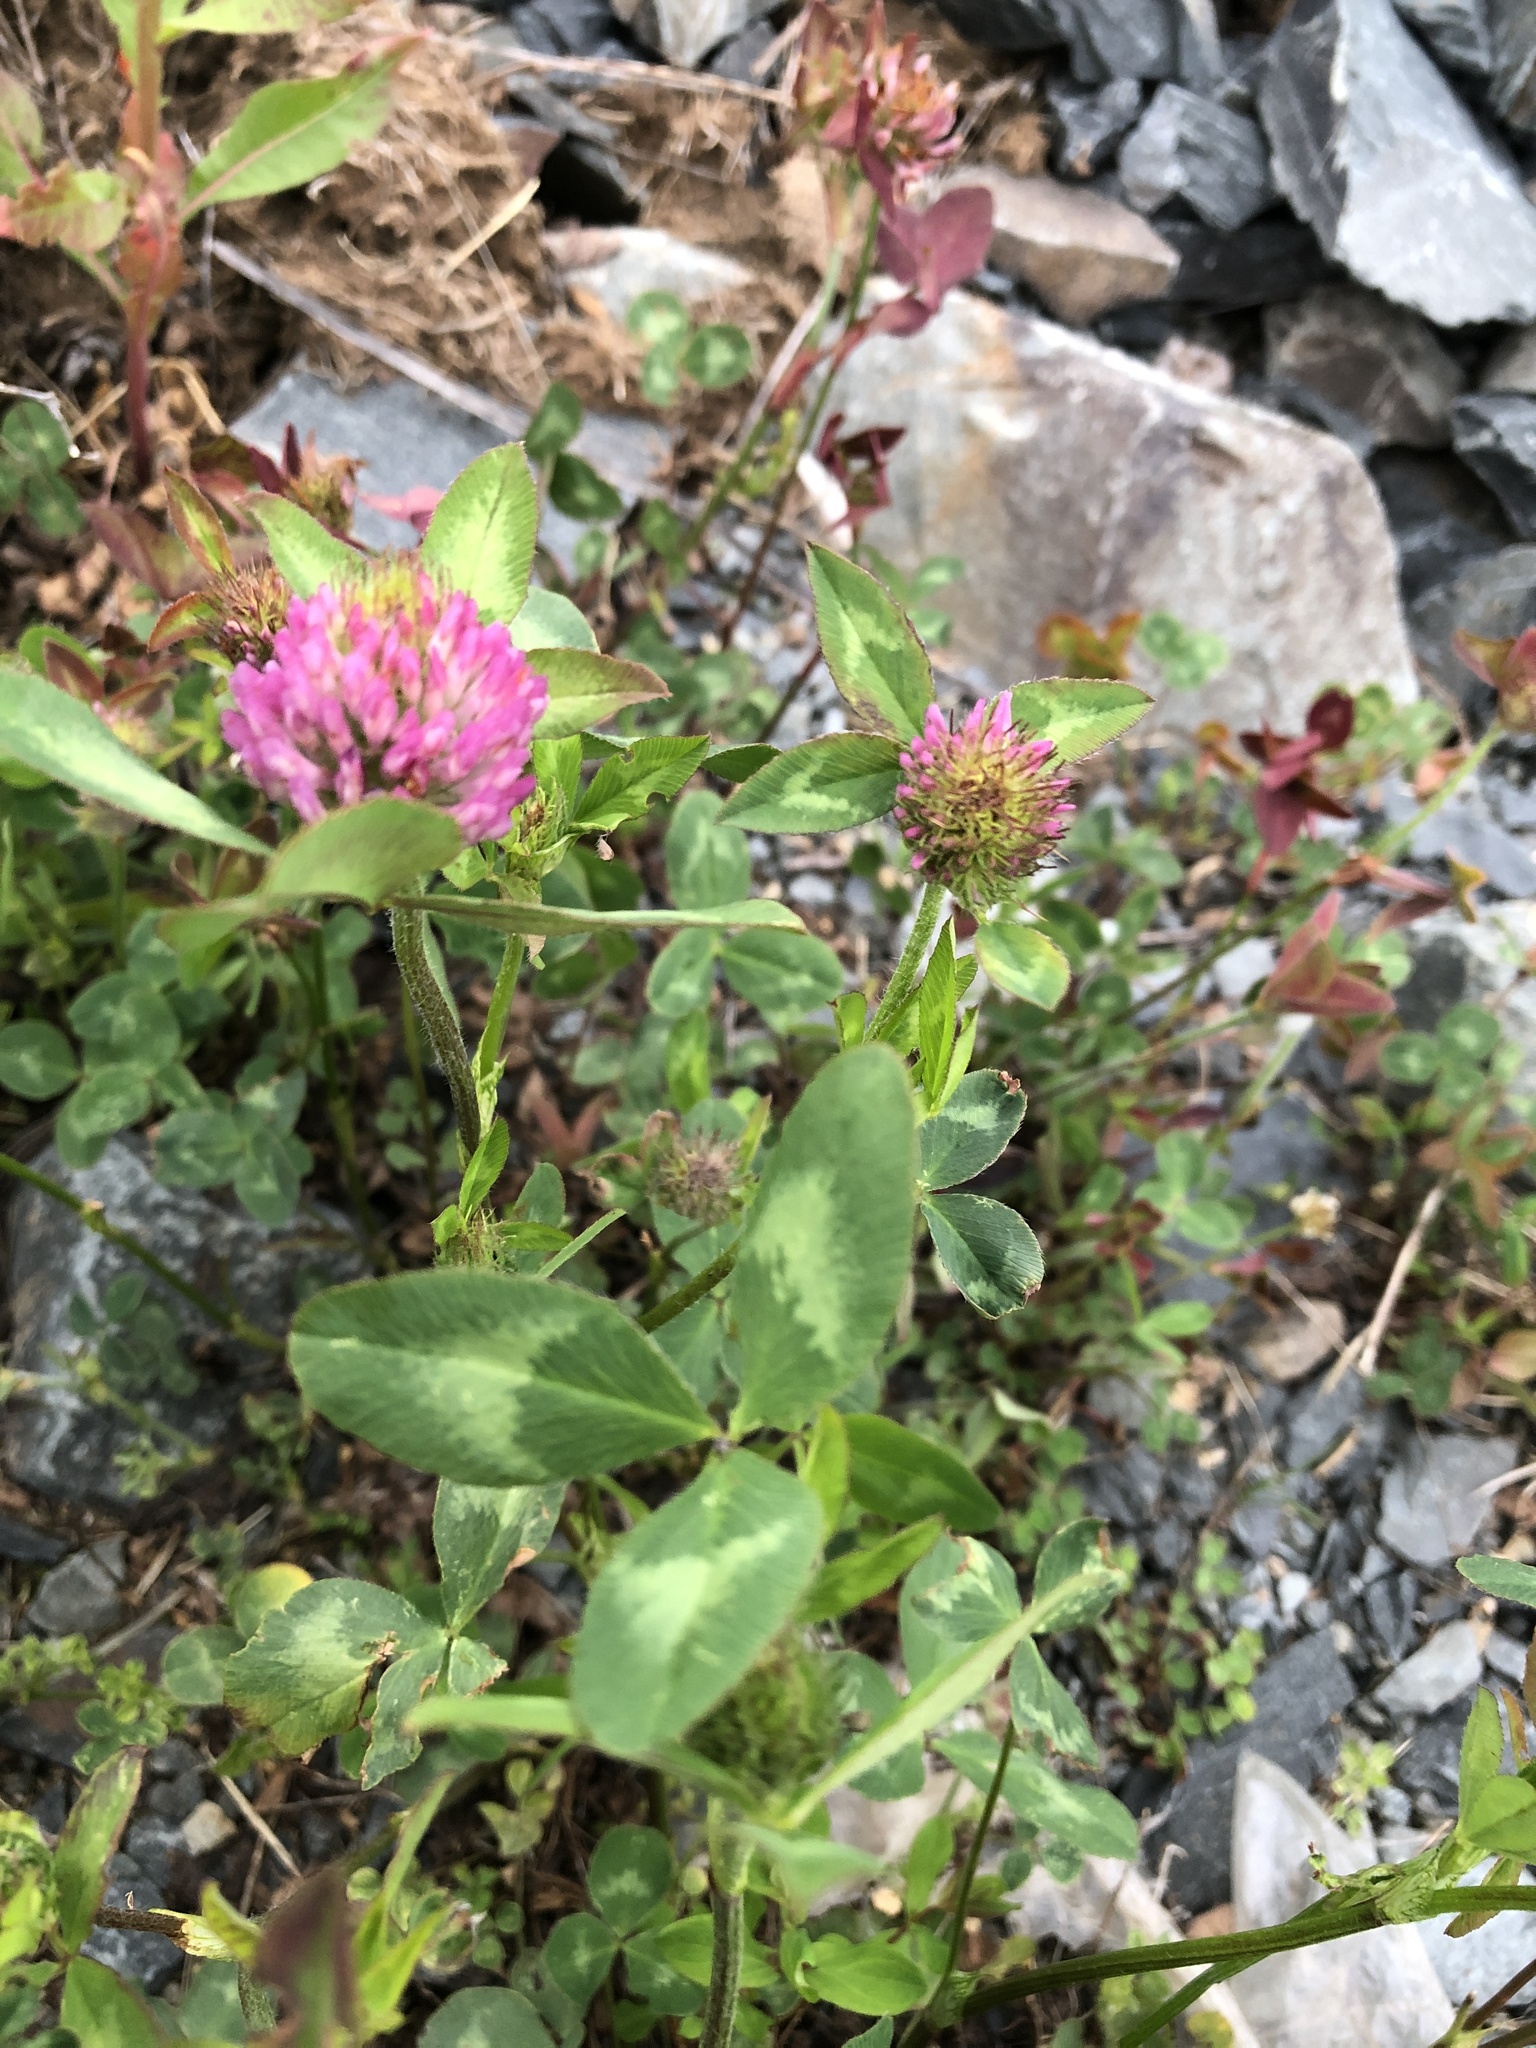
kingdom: Plantae
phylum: Tracheophyta
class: Magnoliopsida
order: Fabales
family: Fabaceae
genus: Trifolium
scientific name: Trifolium pratense
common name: Red clover
